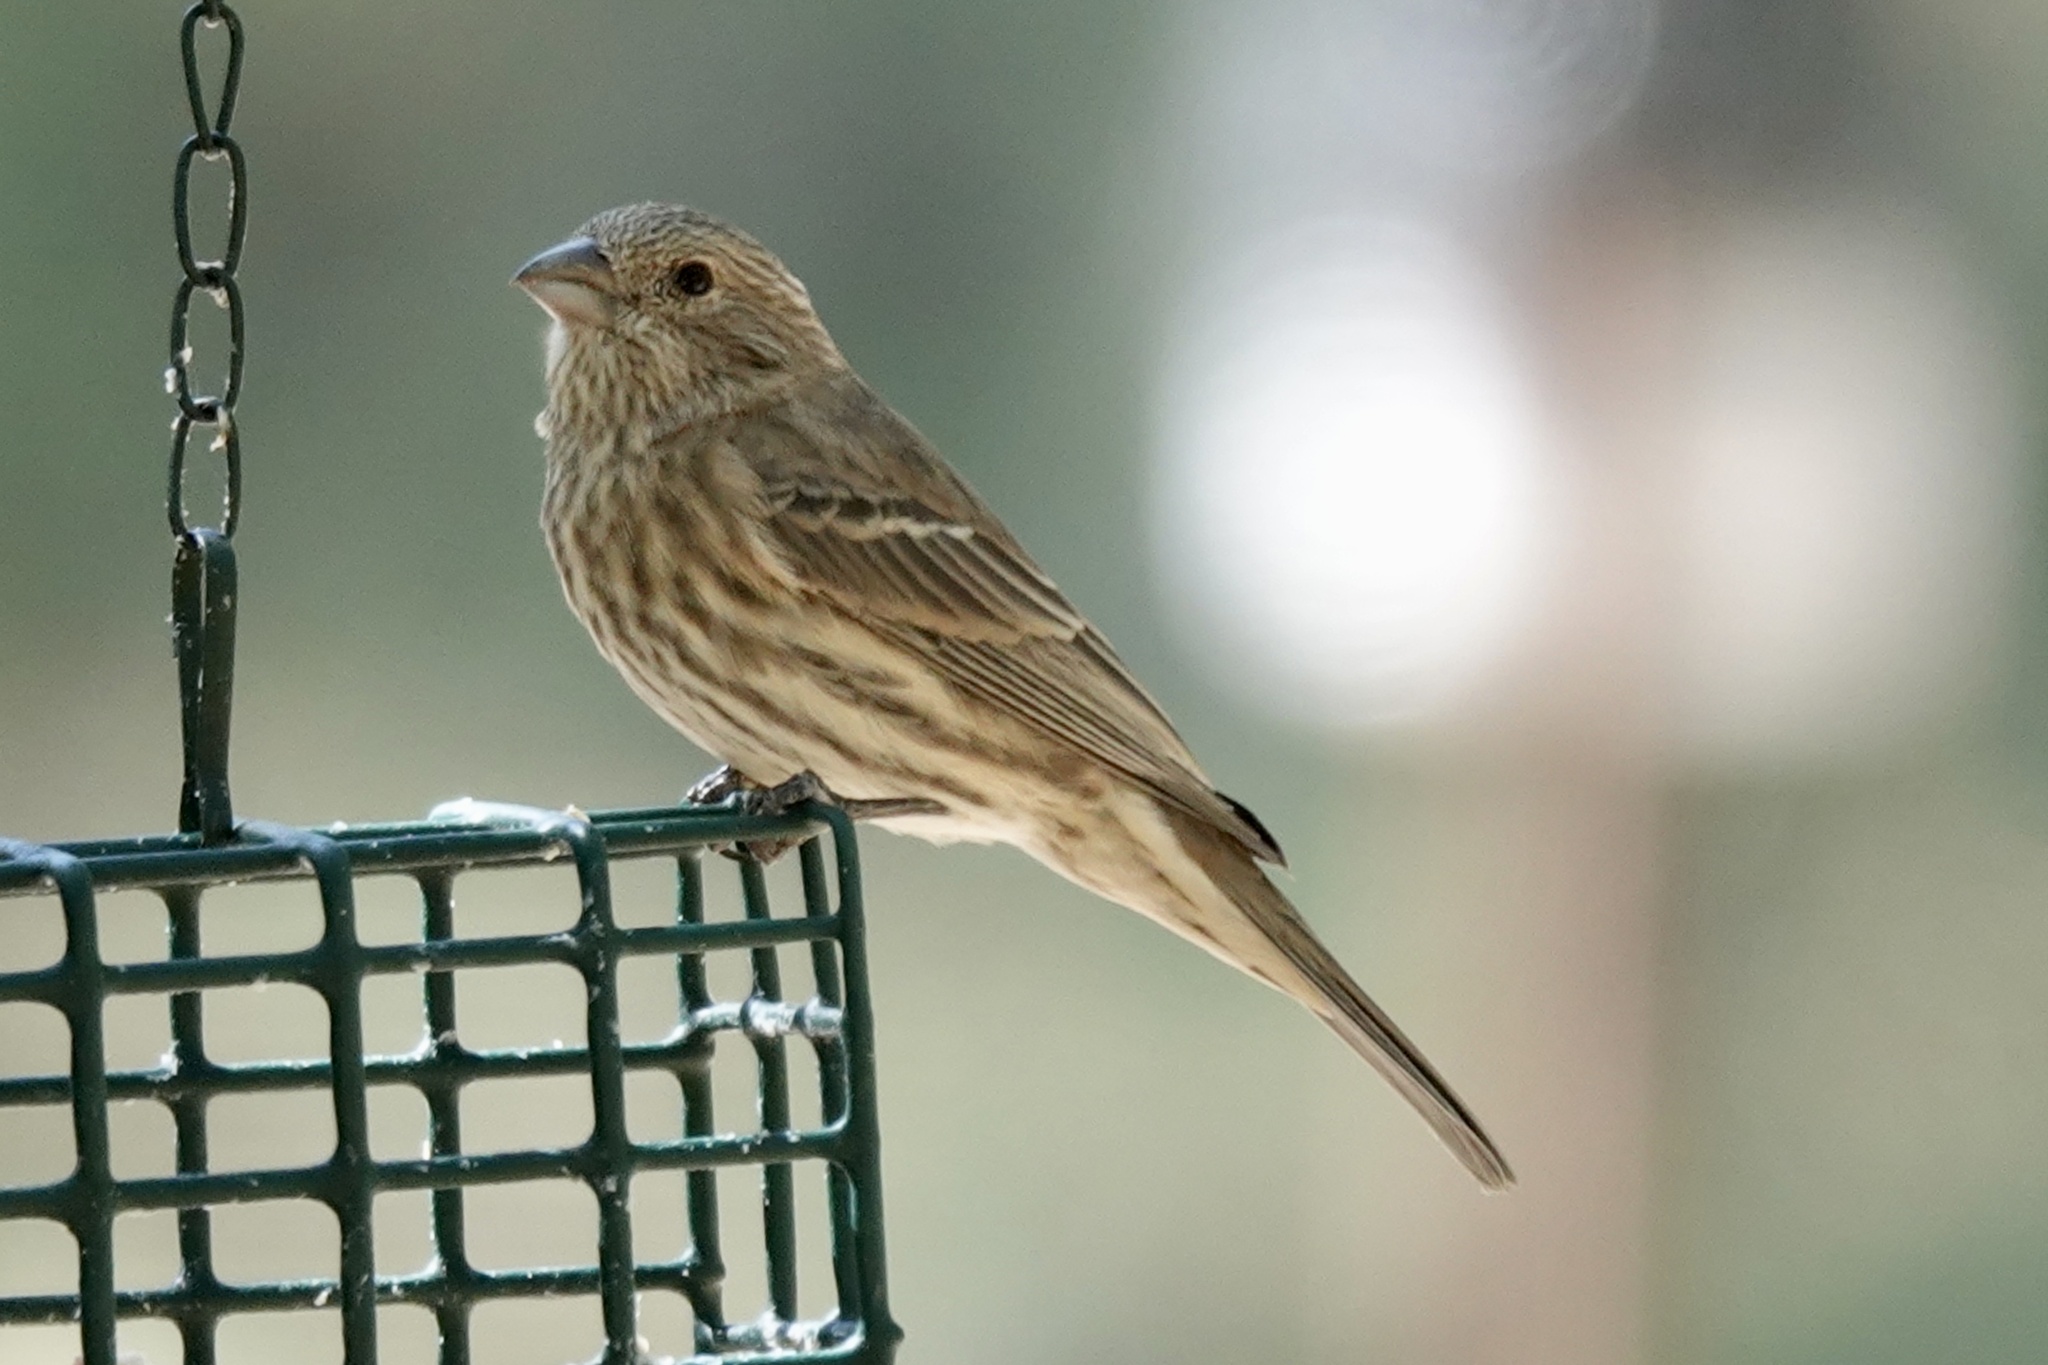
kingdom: Animalia
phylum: Chordata
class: Aves
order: Passeriformes
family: Fringillidae
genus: Haemorhous
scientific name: Haemorhous mexicanus
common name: House finch
